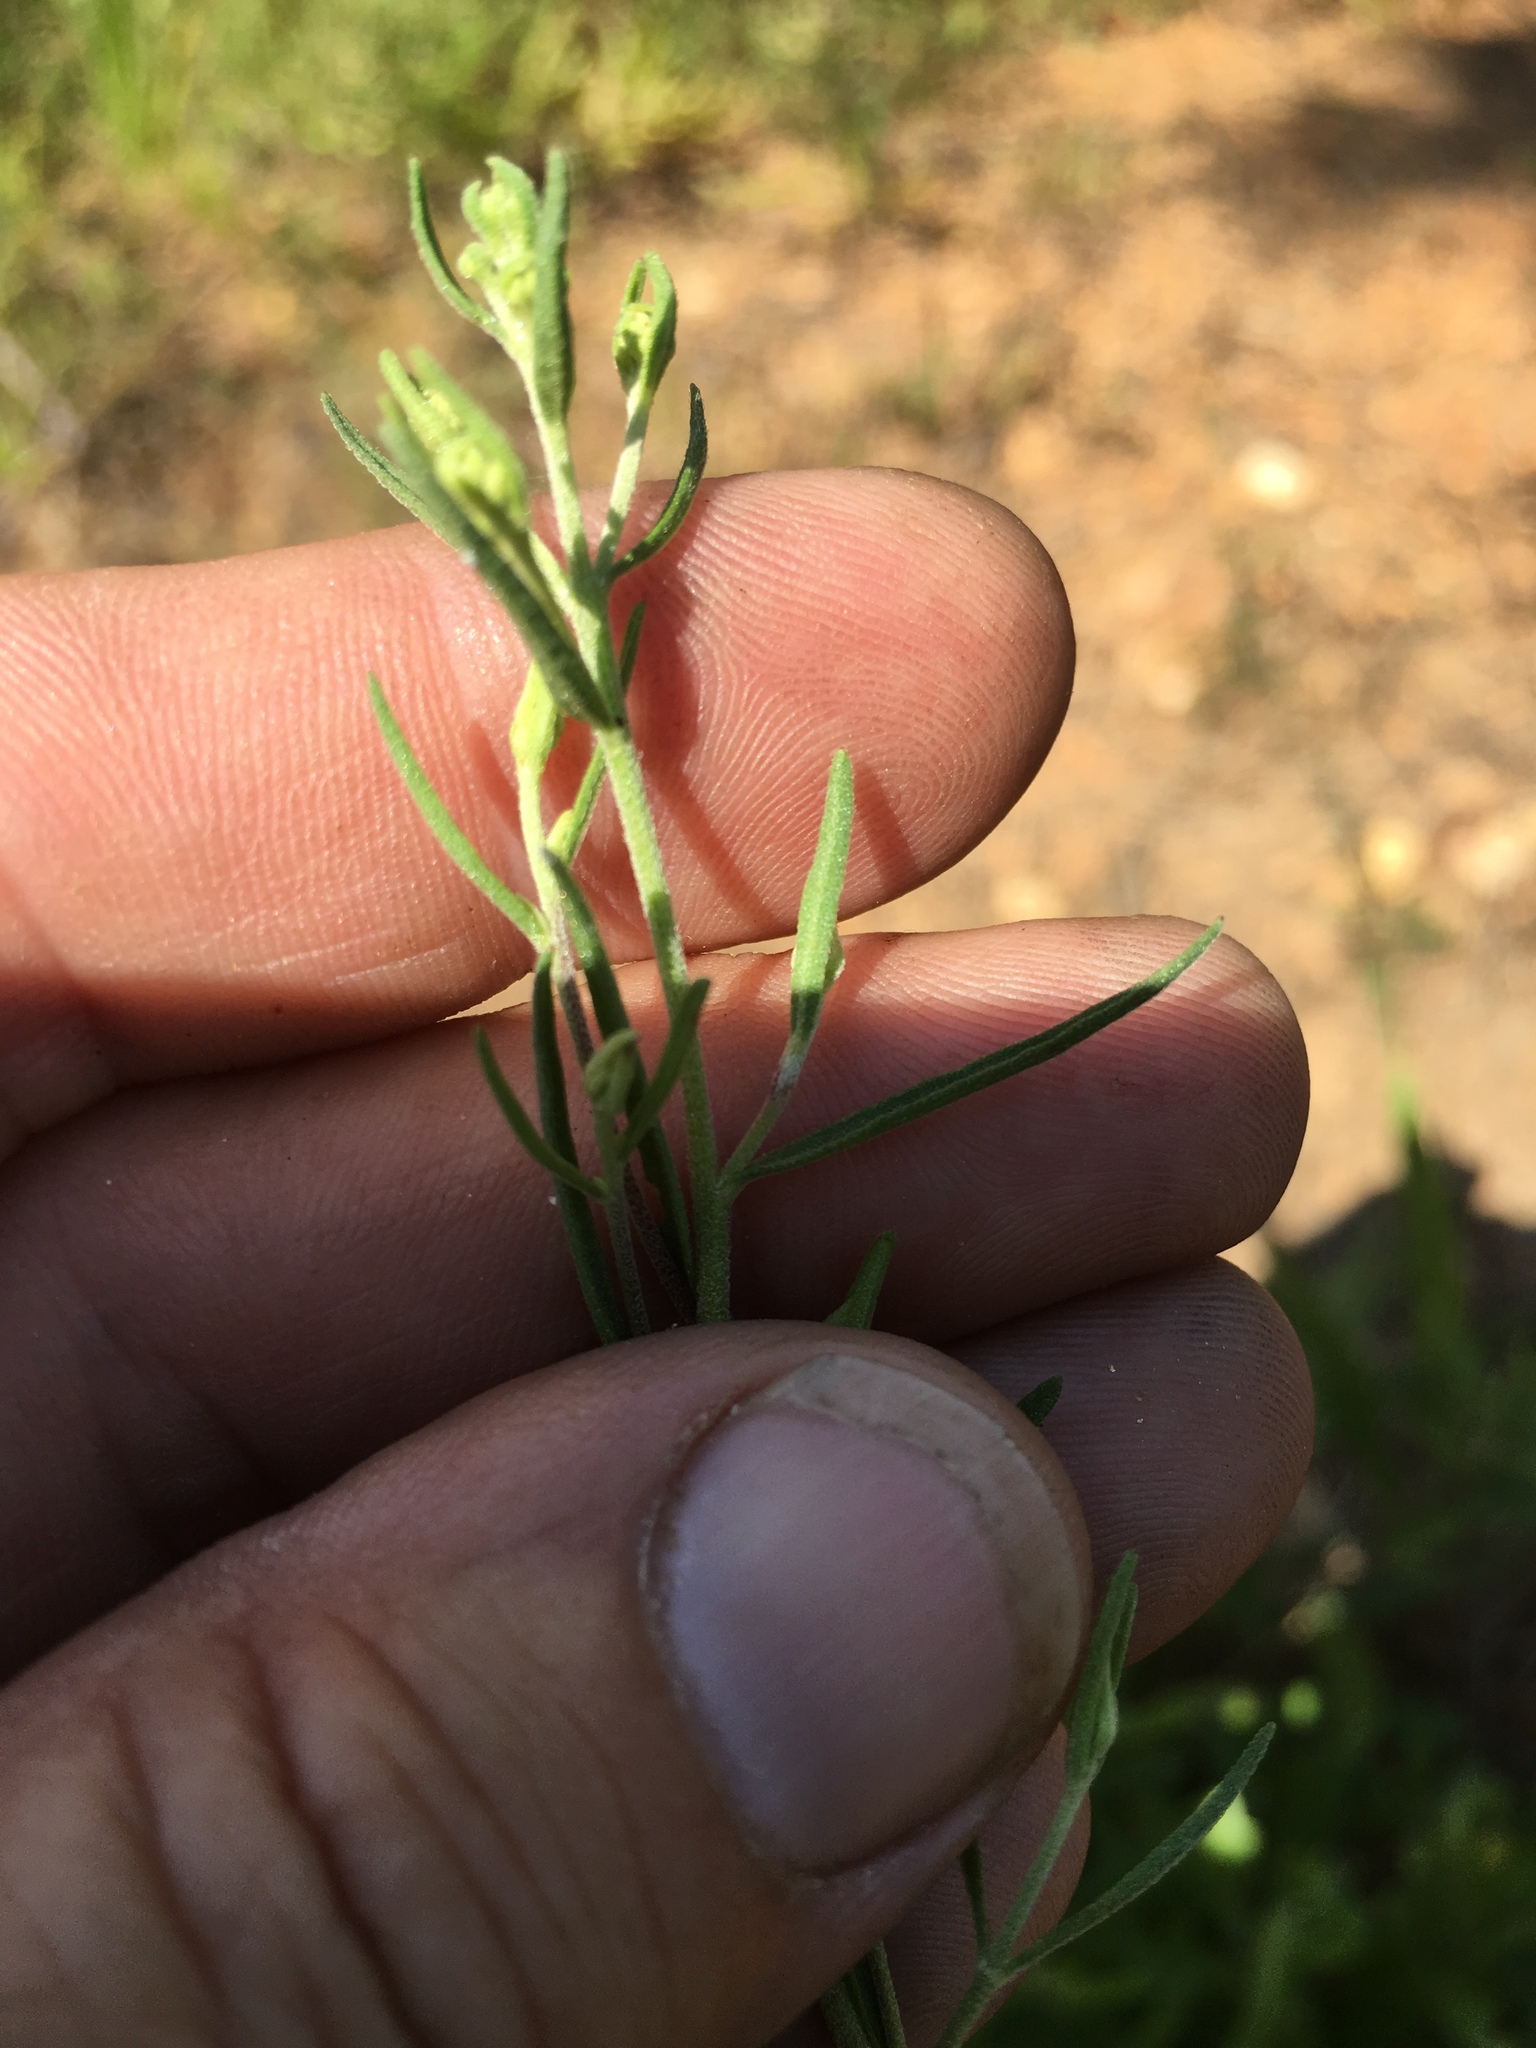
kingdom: Plantae
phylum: Tracheophyta
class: Magnoliopsida
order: Asterales
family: Asteraceae
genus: Eupatorium
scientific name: Eupatorium hyssopifolium
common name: Hyssop-leaf thoroughwort
